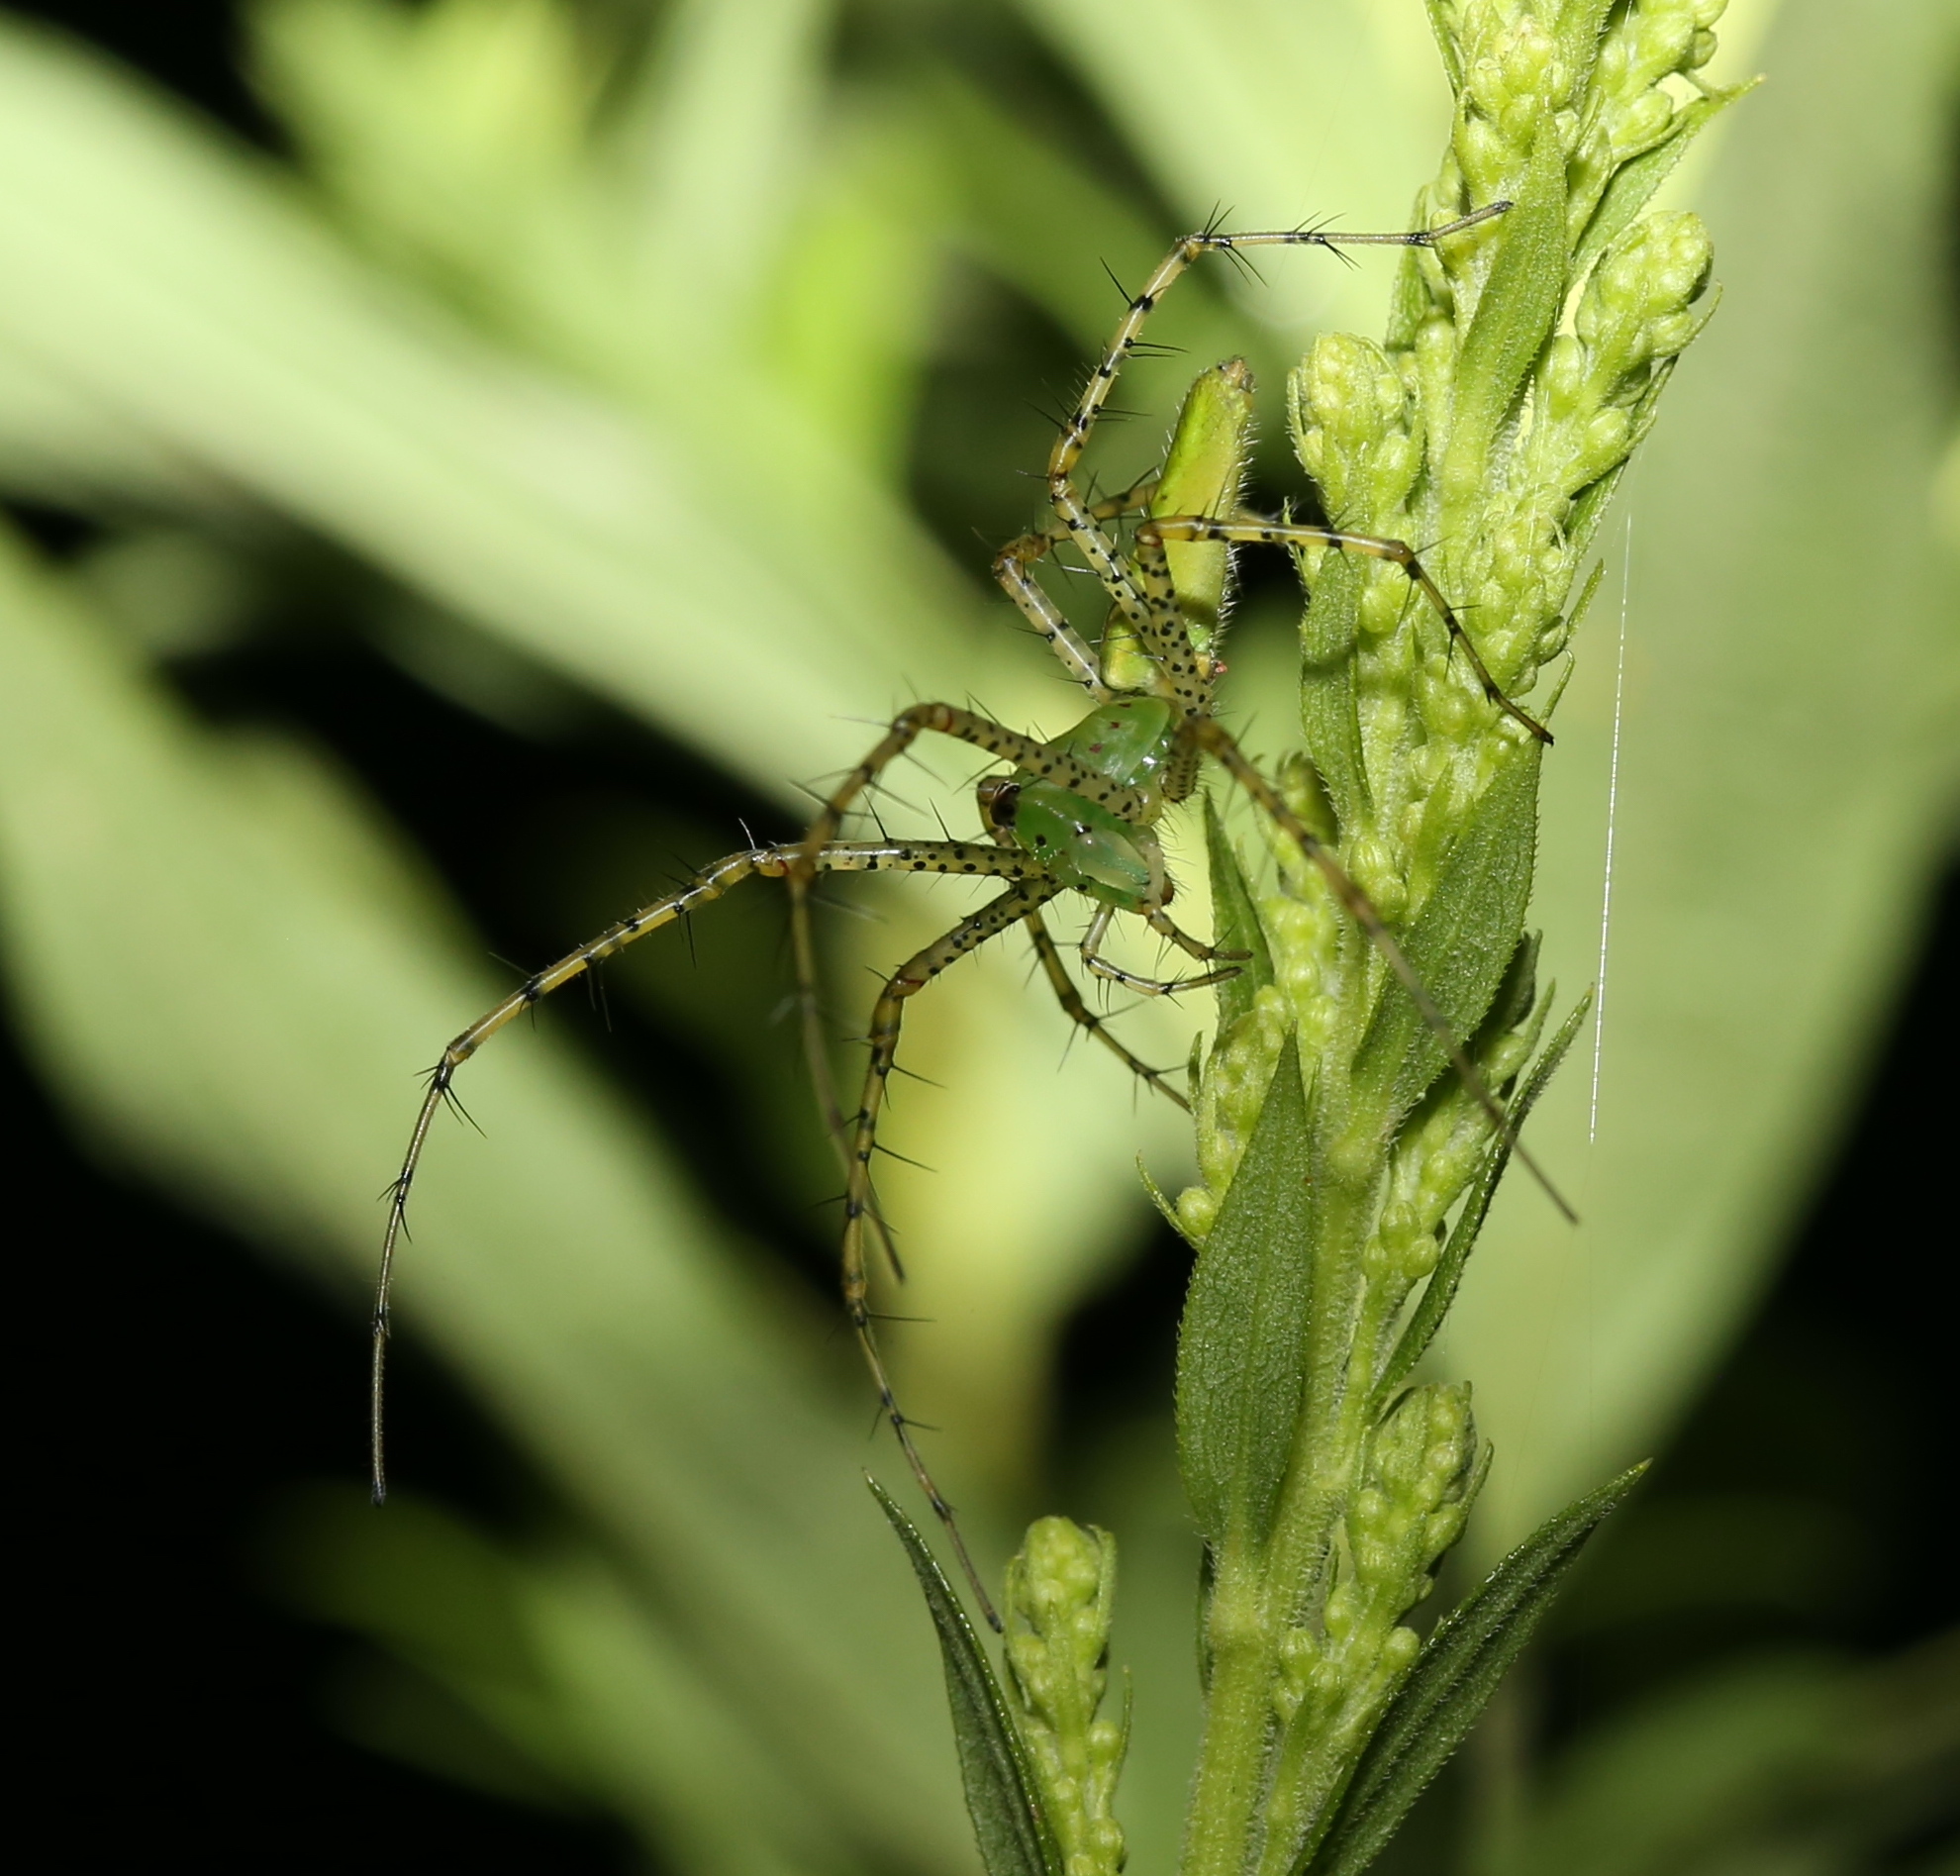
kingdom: Animalia
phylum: Arthropoda
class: Arachnida
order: Araneae
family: Oxyopidae
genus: Peucetia
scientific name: Peucetia viridans
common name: Lynx spiders
